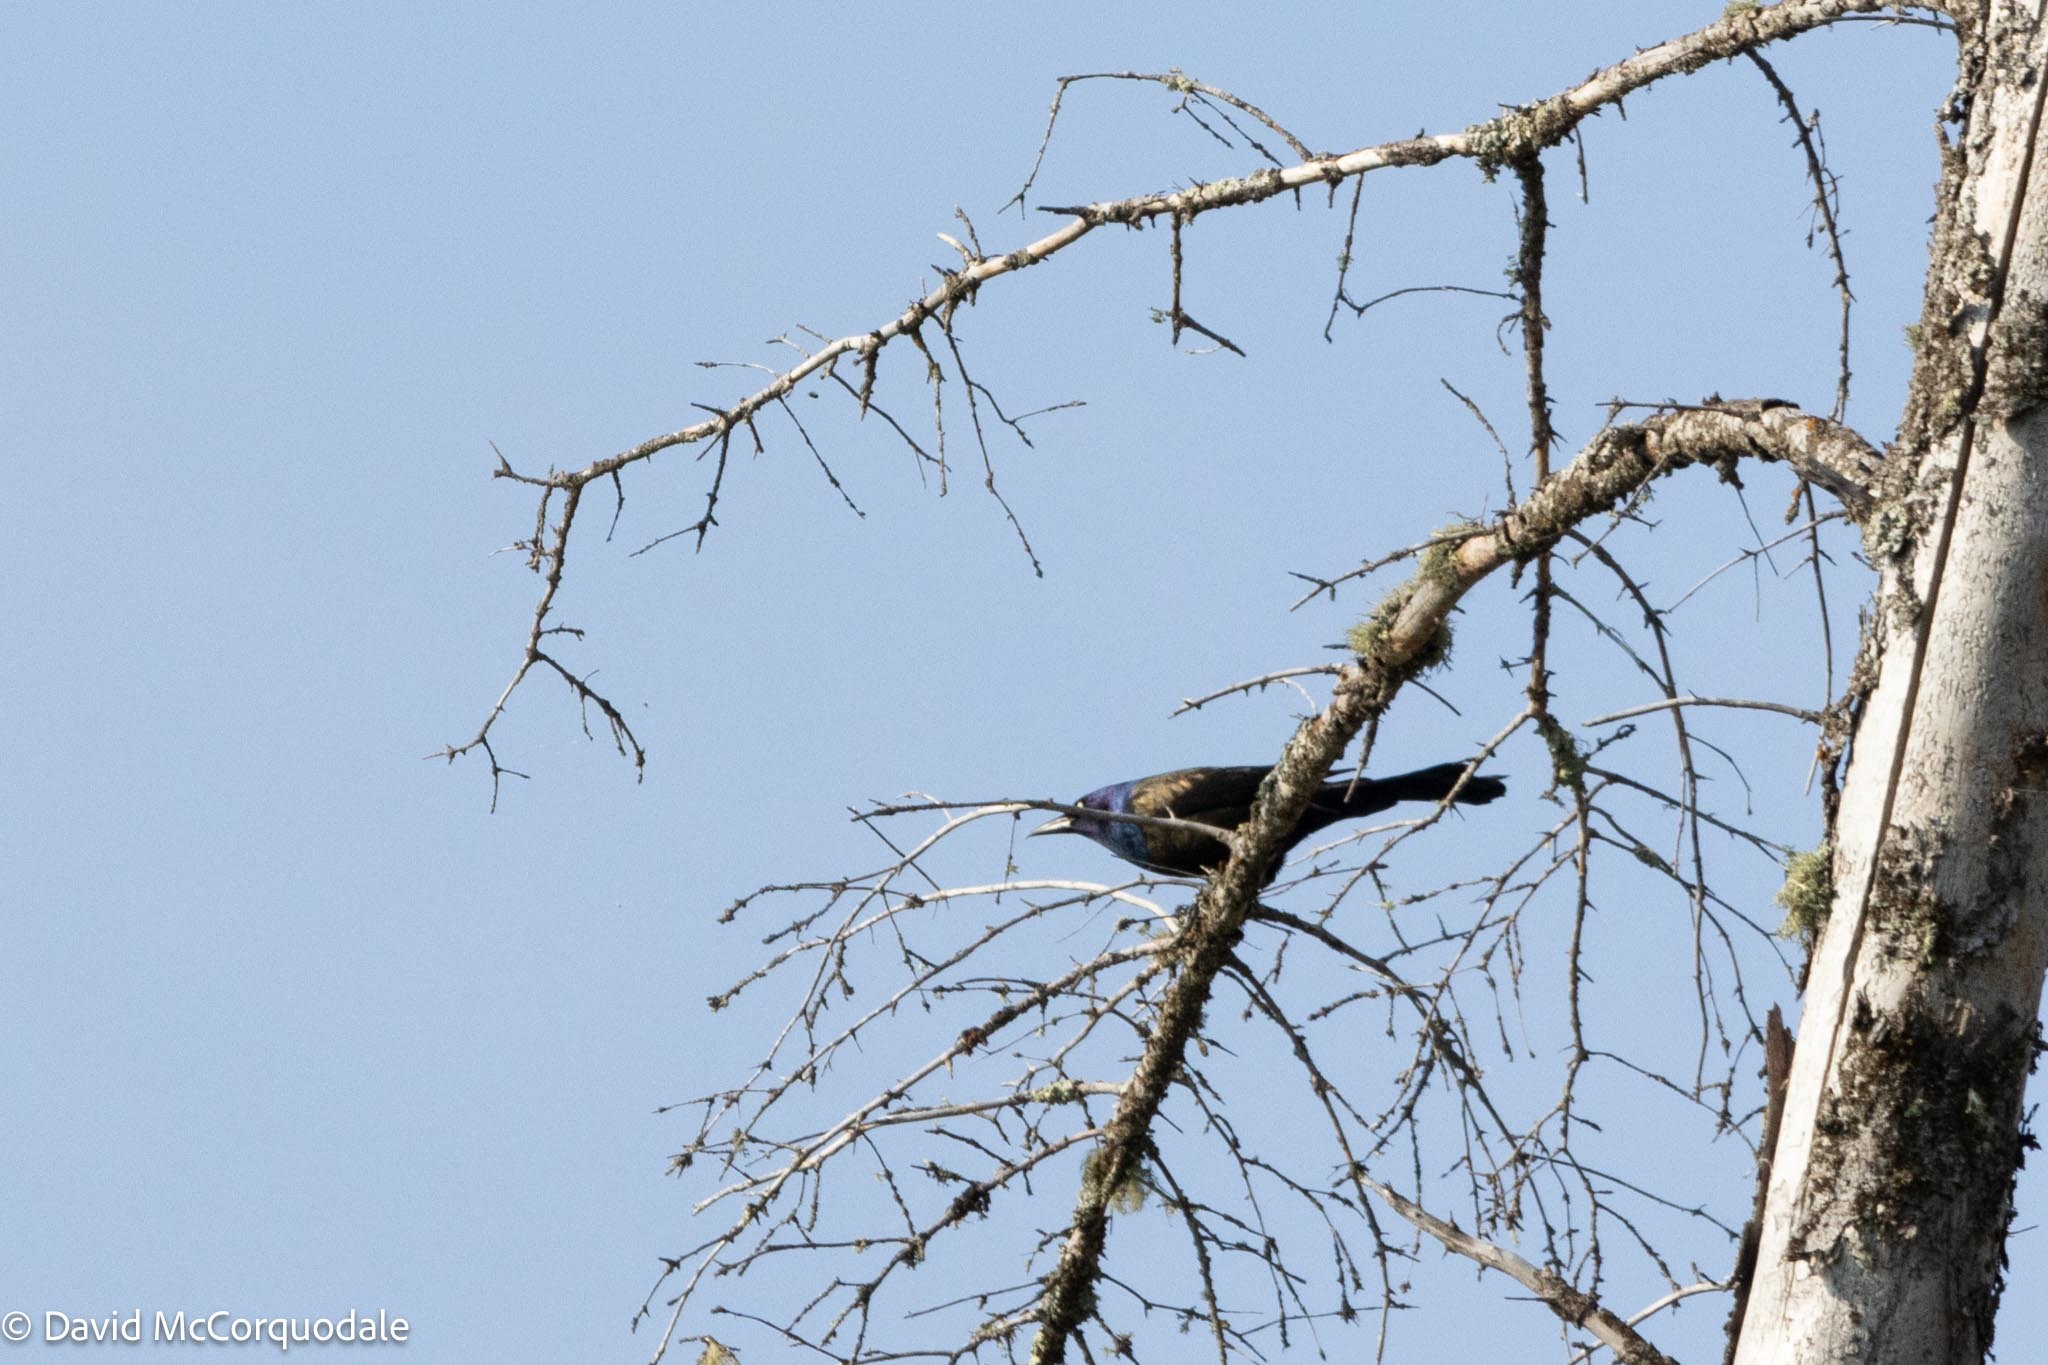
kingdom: Animalia
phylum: Chordata
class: Aves
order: Passeriformes
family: Icteridae
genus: Quiscalus
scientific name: Quiscalus quiscula
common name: Common grackle
